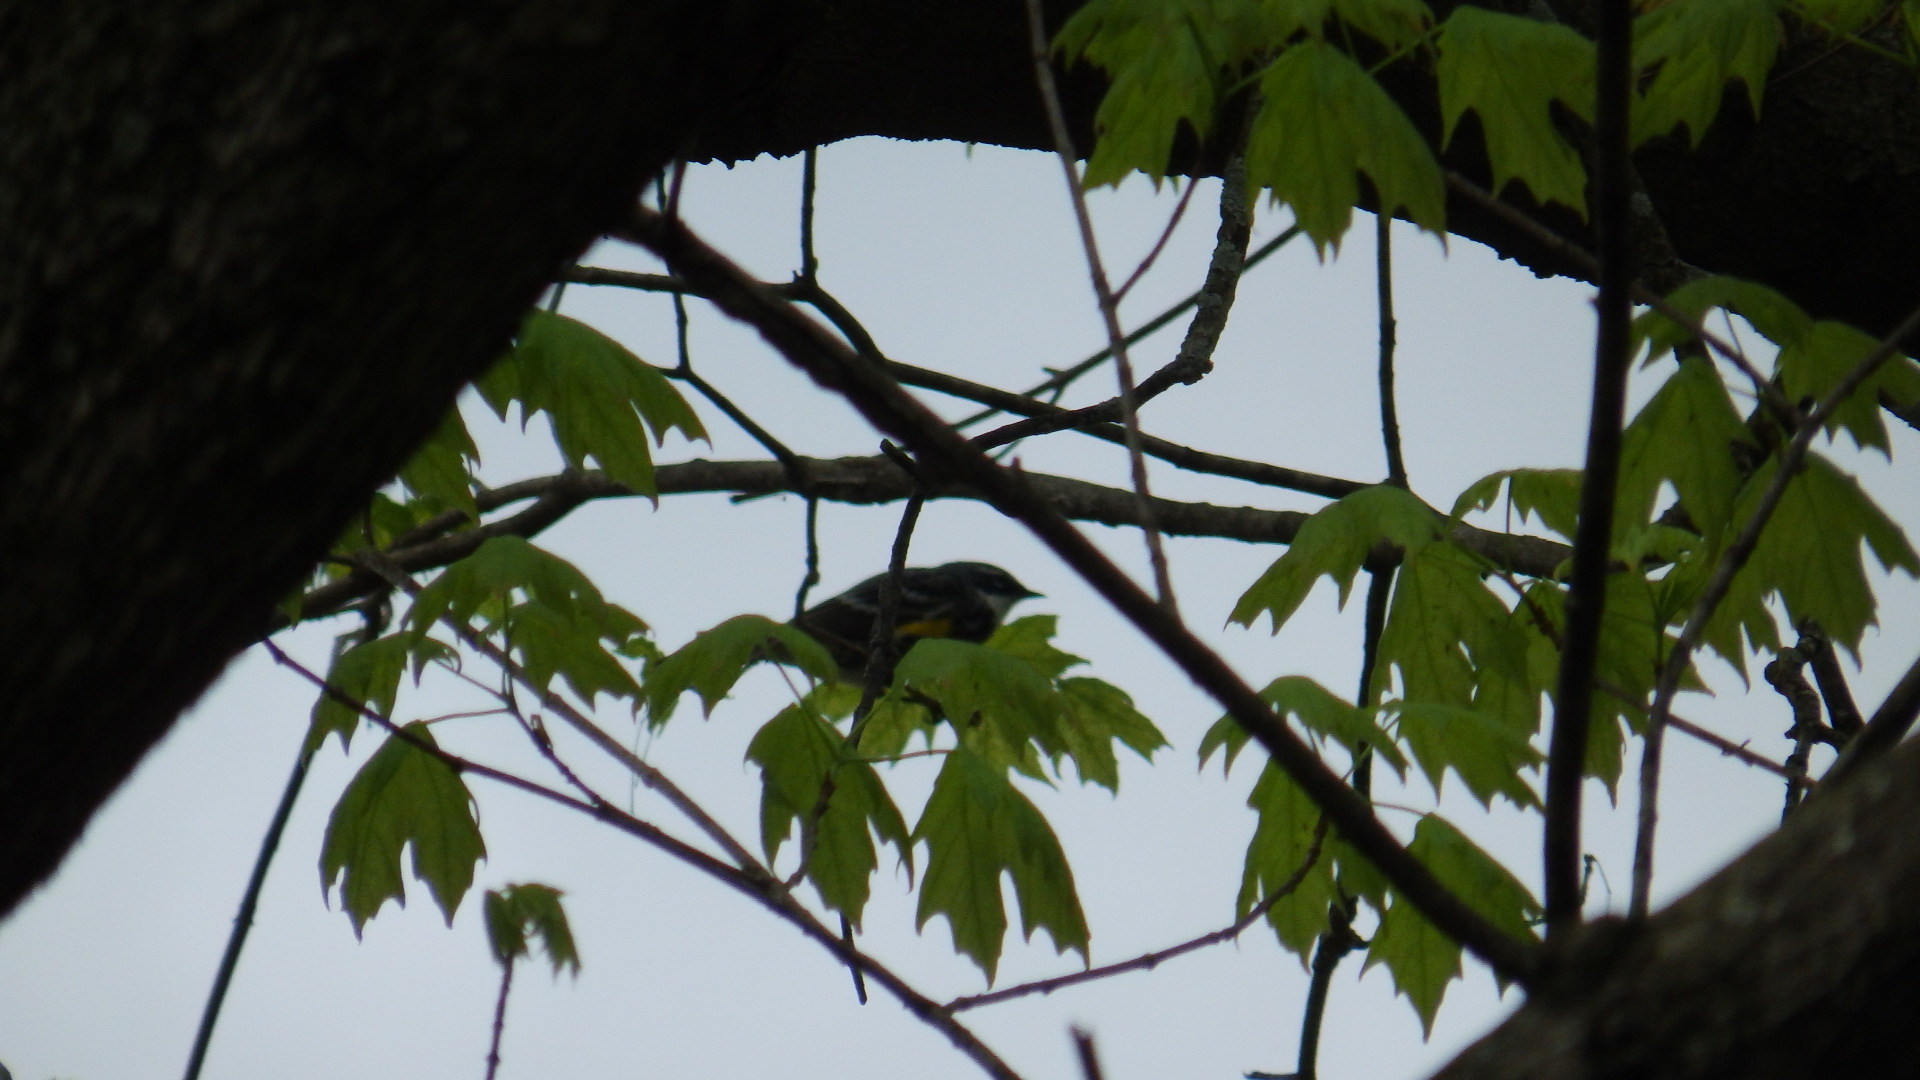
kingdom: Animalia
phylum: Chordata
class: Aves
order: Passeriformes
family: Parulidae
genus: Setophaga
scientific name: Setophaga coronata
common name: Myrtle warbler
